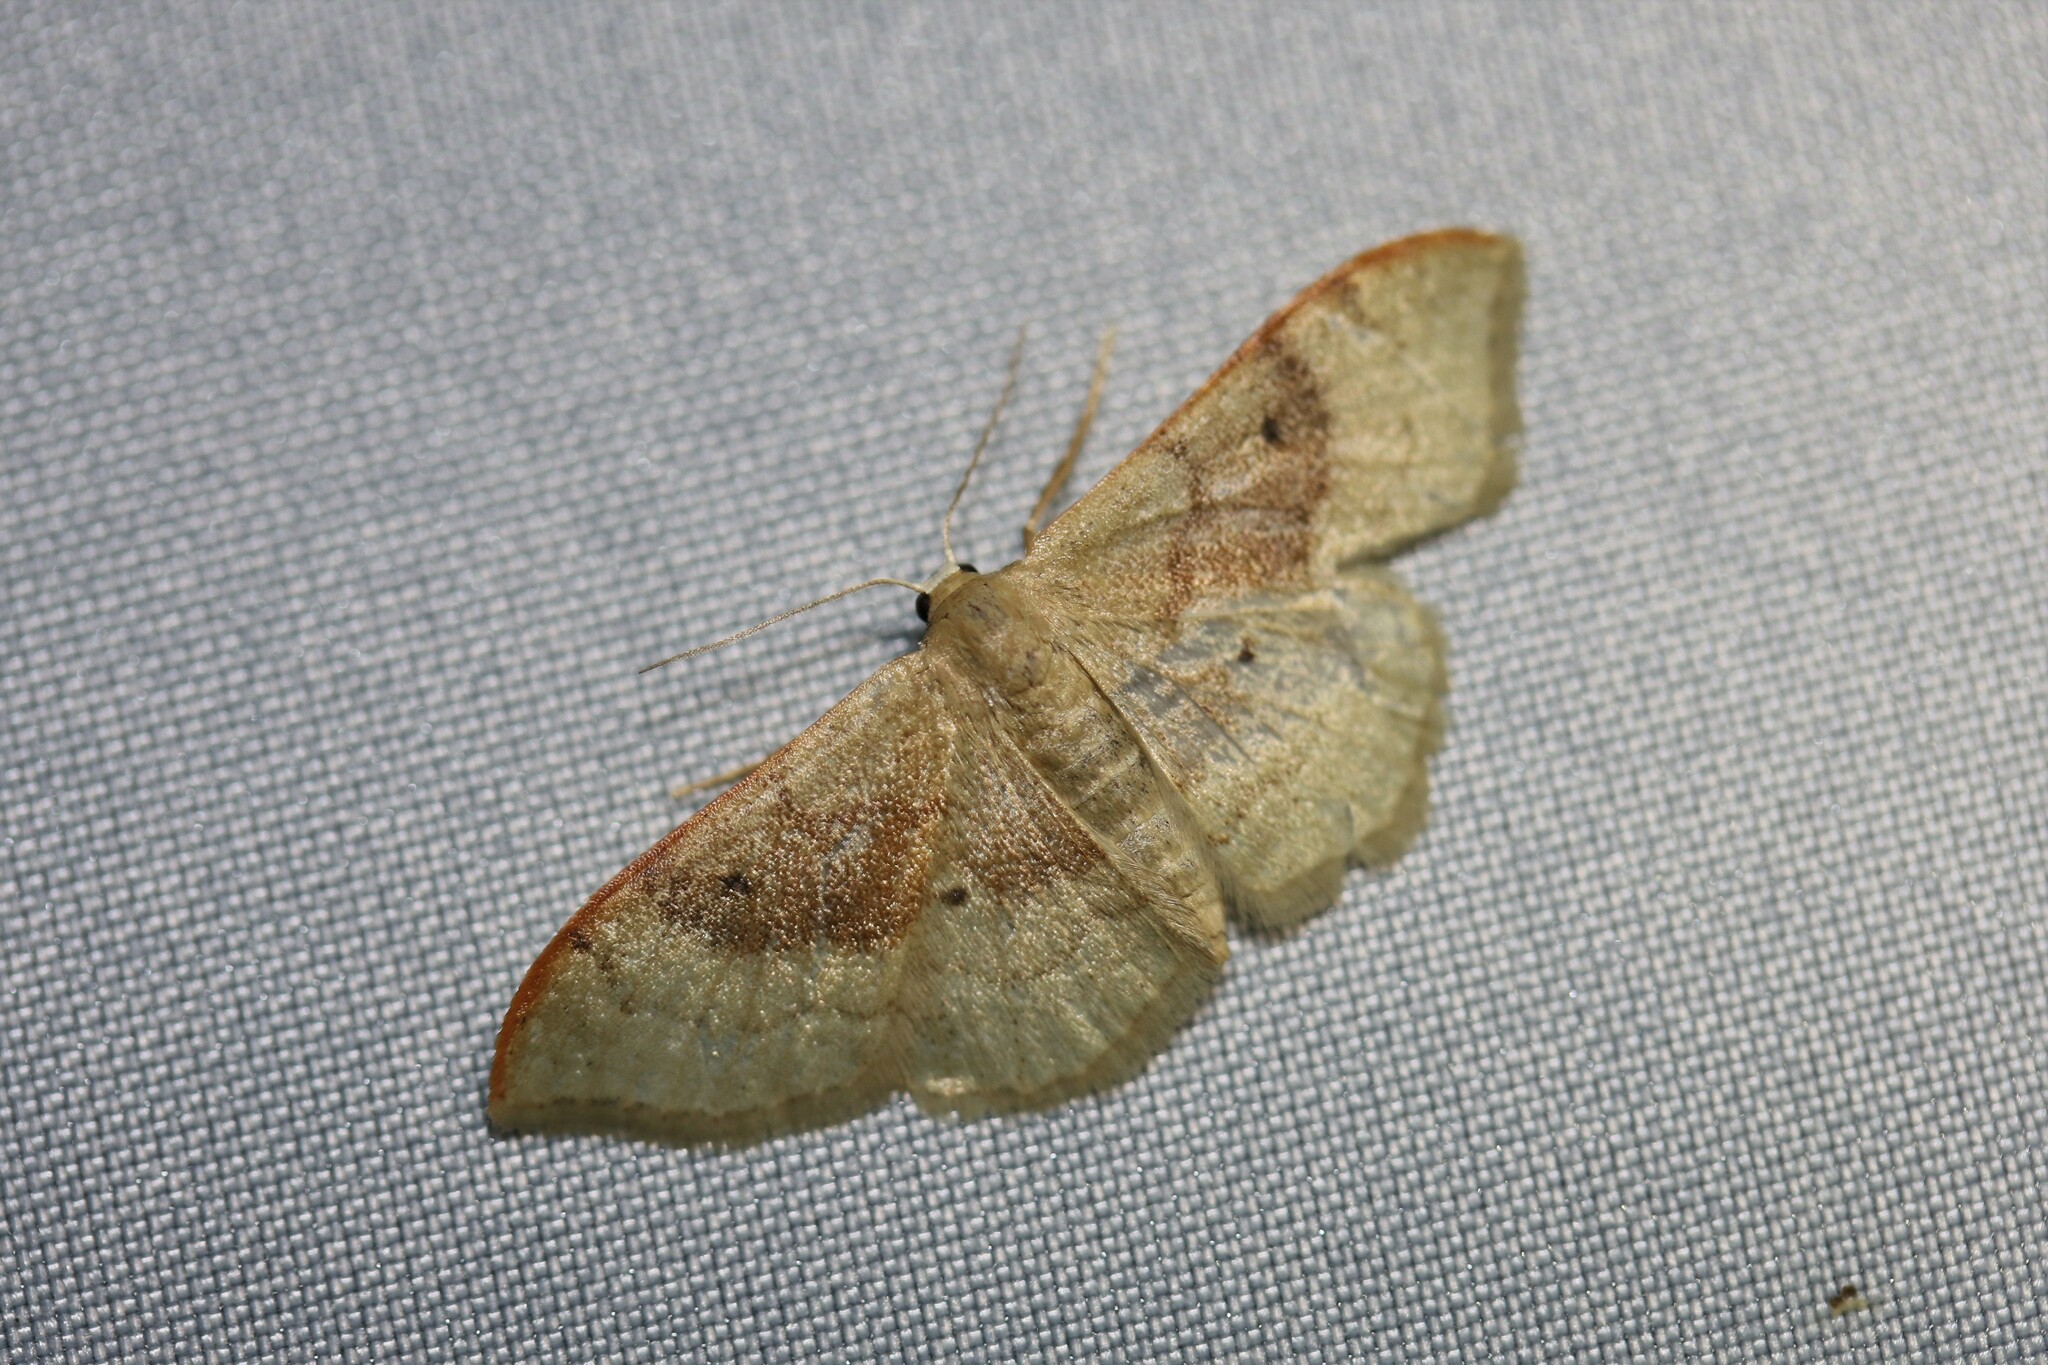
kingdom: Animalia
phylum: Arthropoda
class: Insecta
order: Lepidoptera
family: Geometridae
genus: Idaea
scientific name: Idaea degeneraria
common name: Portland ribbon wave
